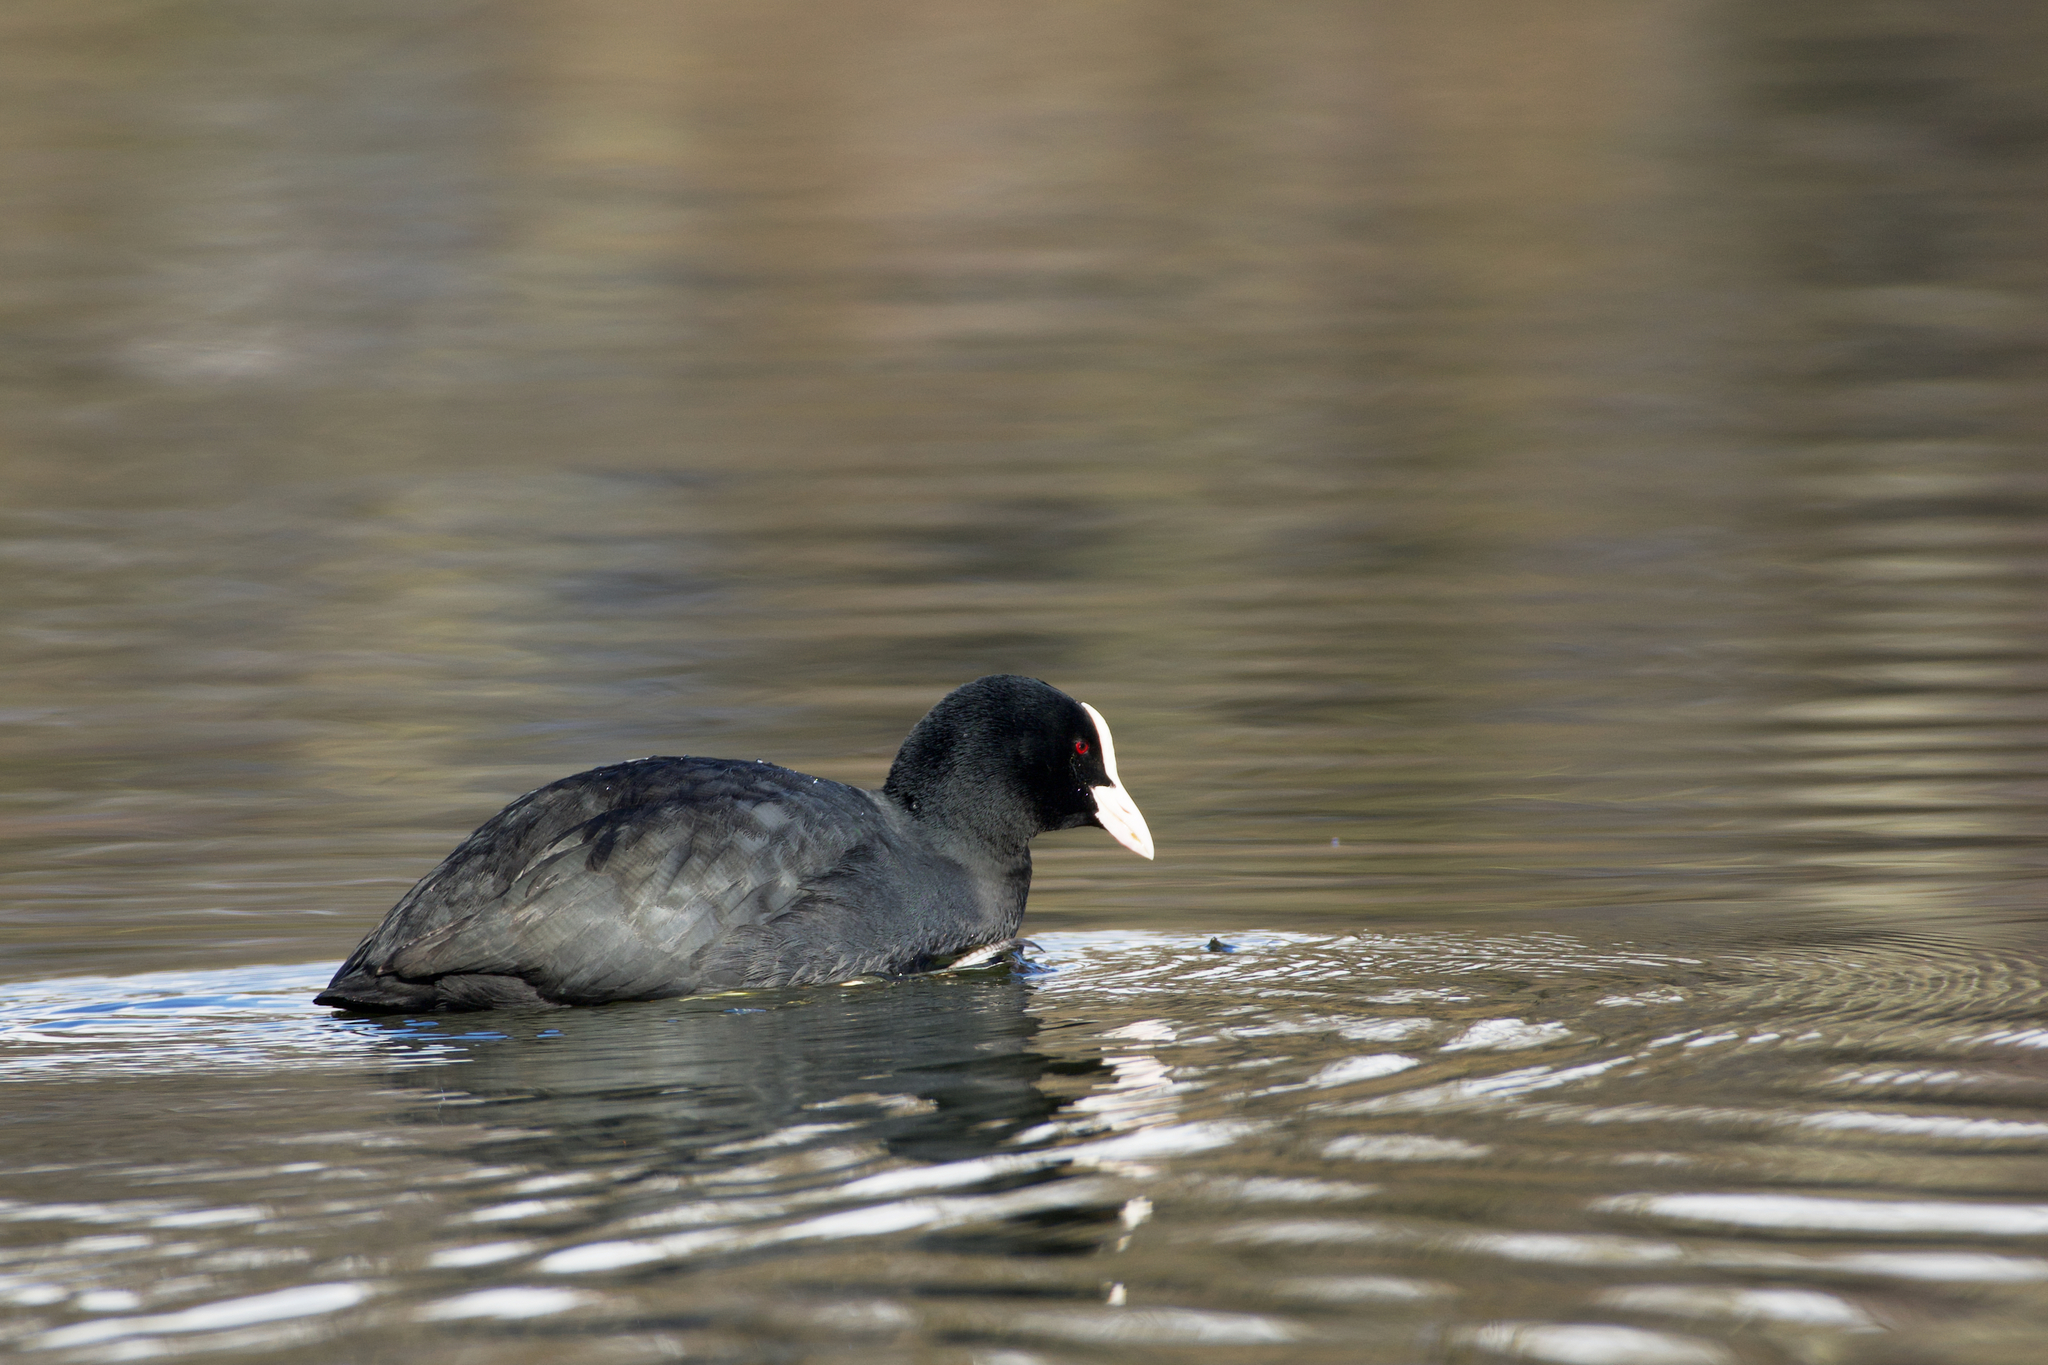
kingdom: Animalia
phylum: Chordata
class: Aves
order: Gruiformes
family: Rallidae
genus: Fulica
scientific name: Fulica atra
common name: Eurasian coot
